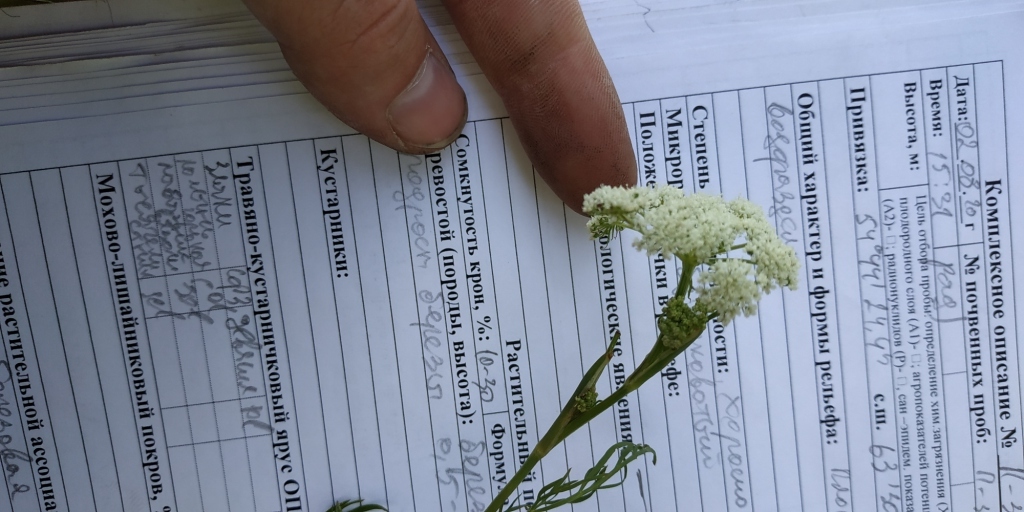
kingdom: Plantae
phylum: Tracheophyta
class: Magnoliopsida
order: Apiales
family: Apiaceae
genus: Kadenia
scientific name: Kadenia dubia
